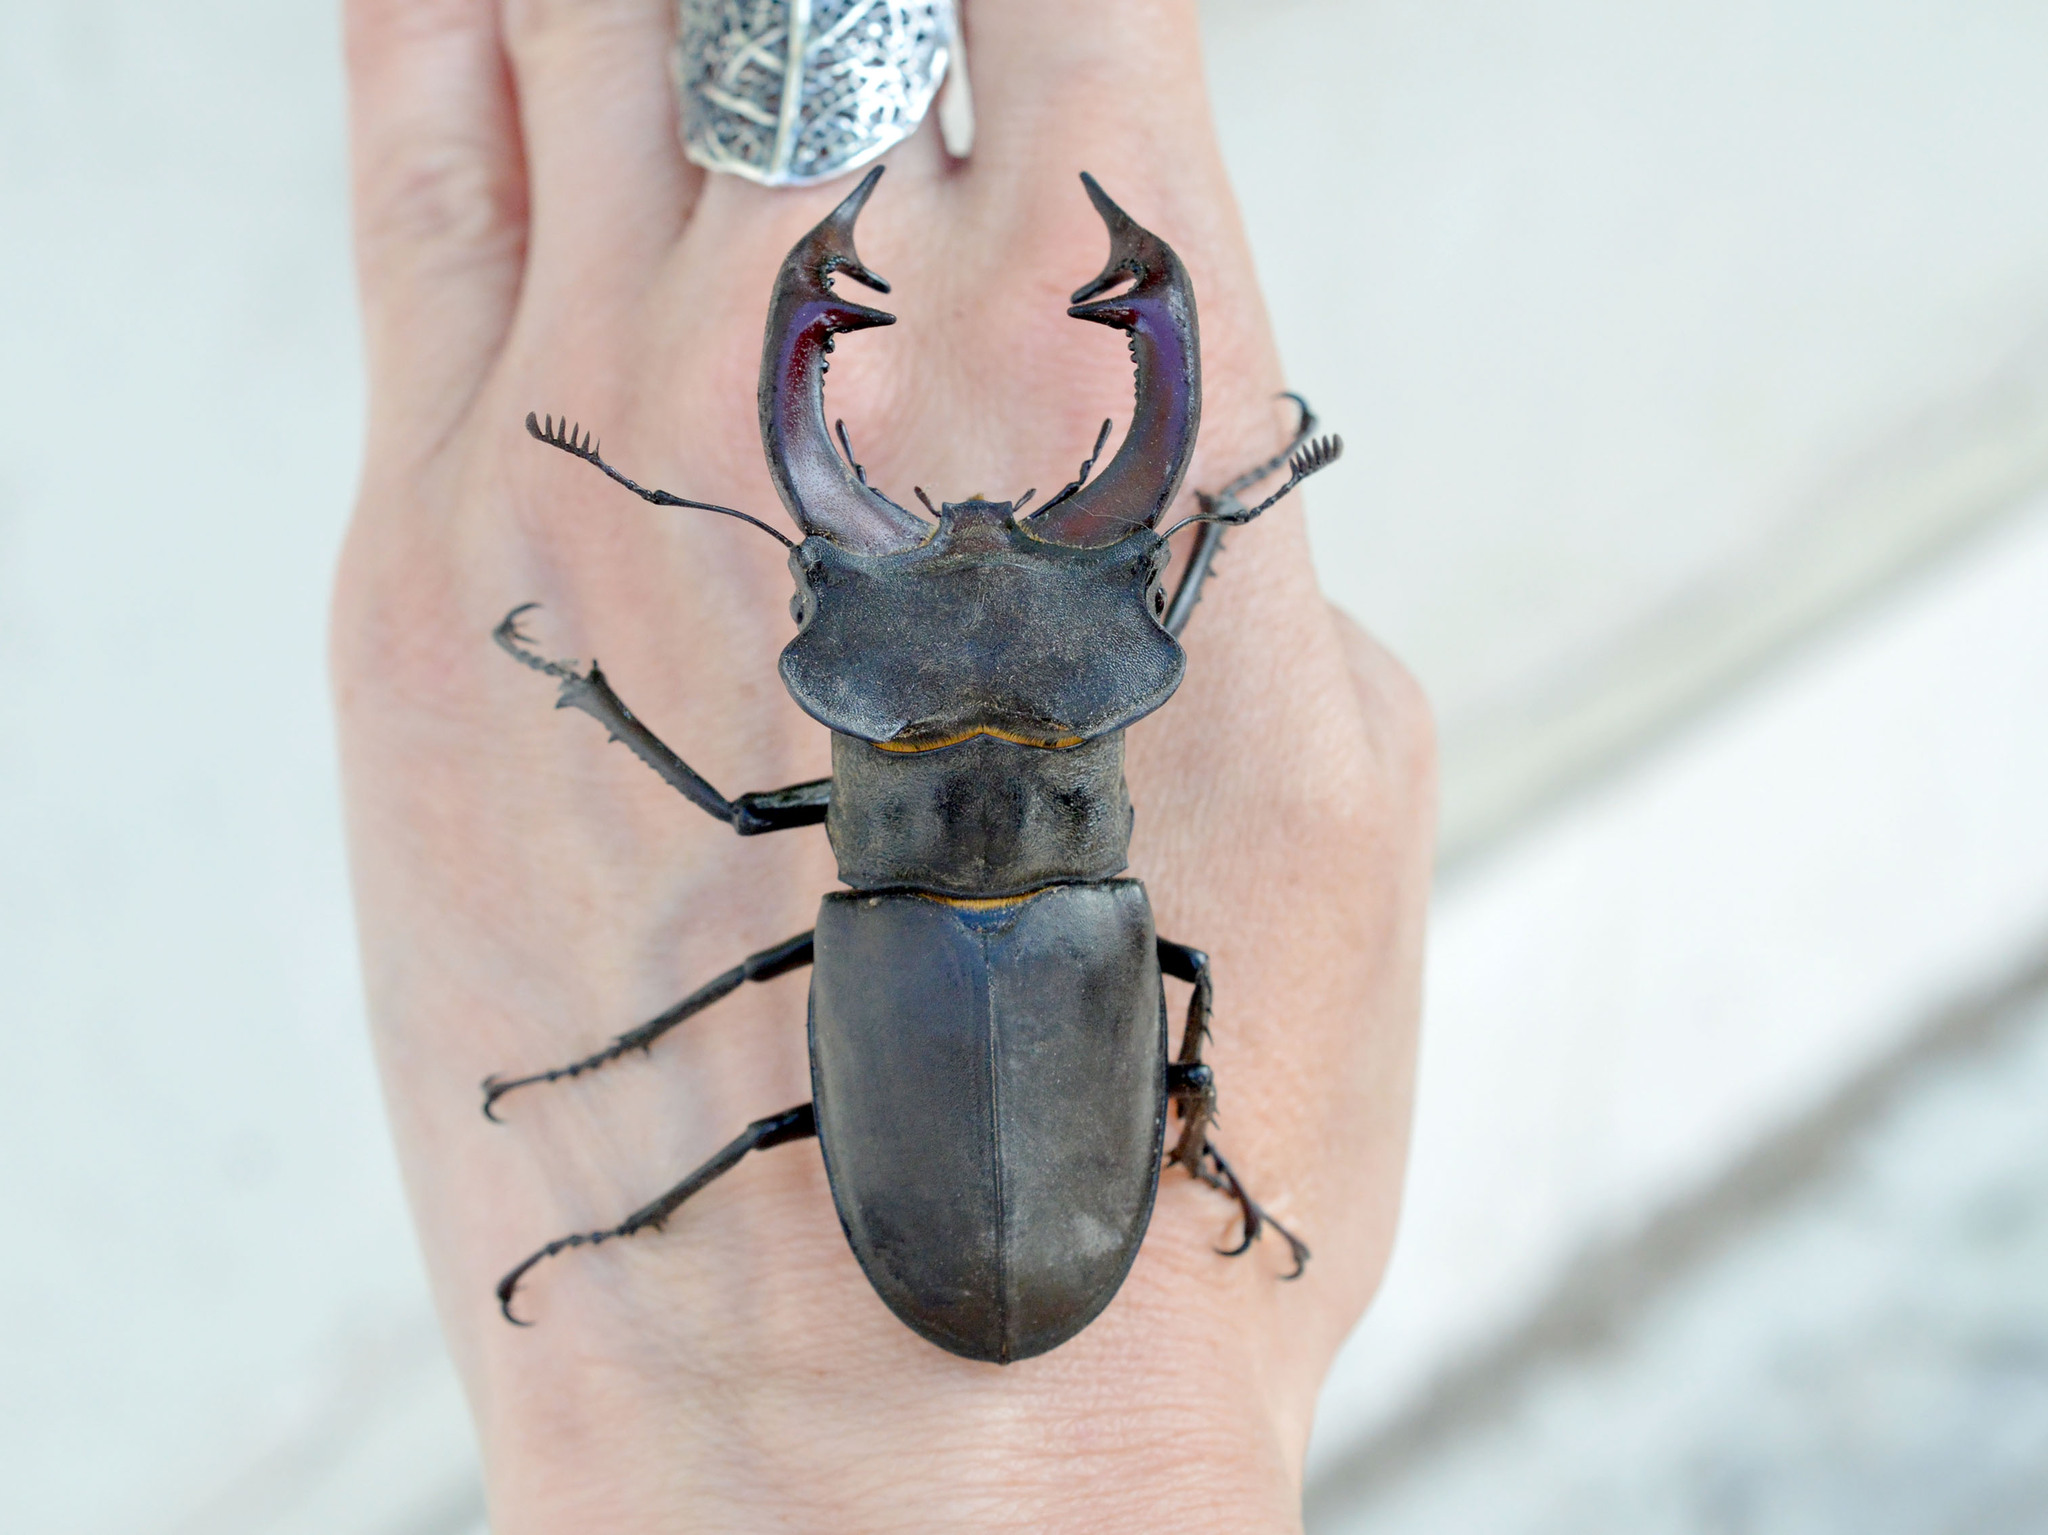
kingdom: Animalia
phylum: Arthropoda
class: Insecta
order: Coleoptera
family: Lucanidae
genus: Lucanus
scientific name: Lucanus cervus
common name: Stag beetle
